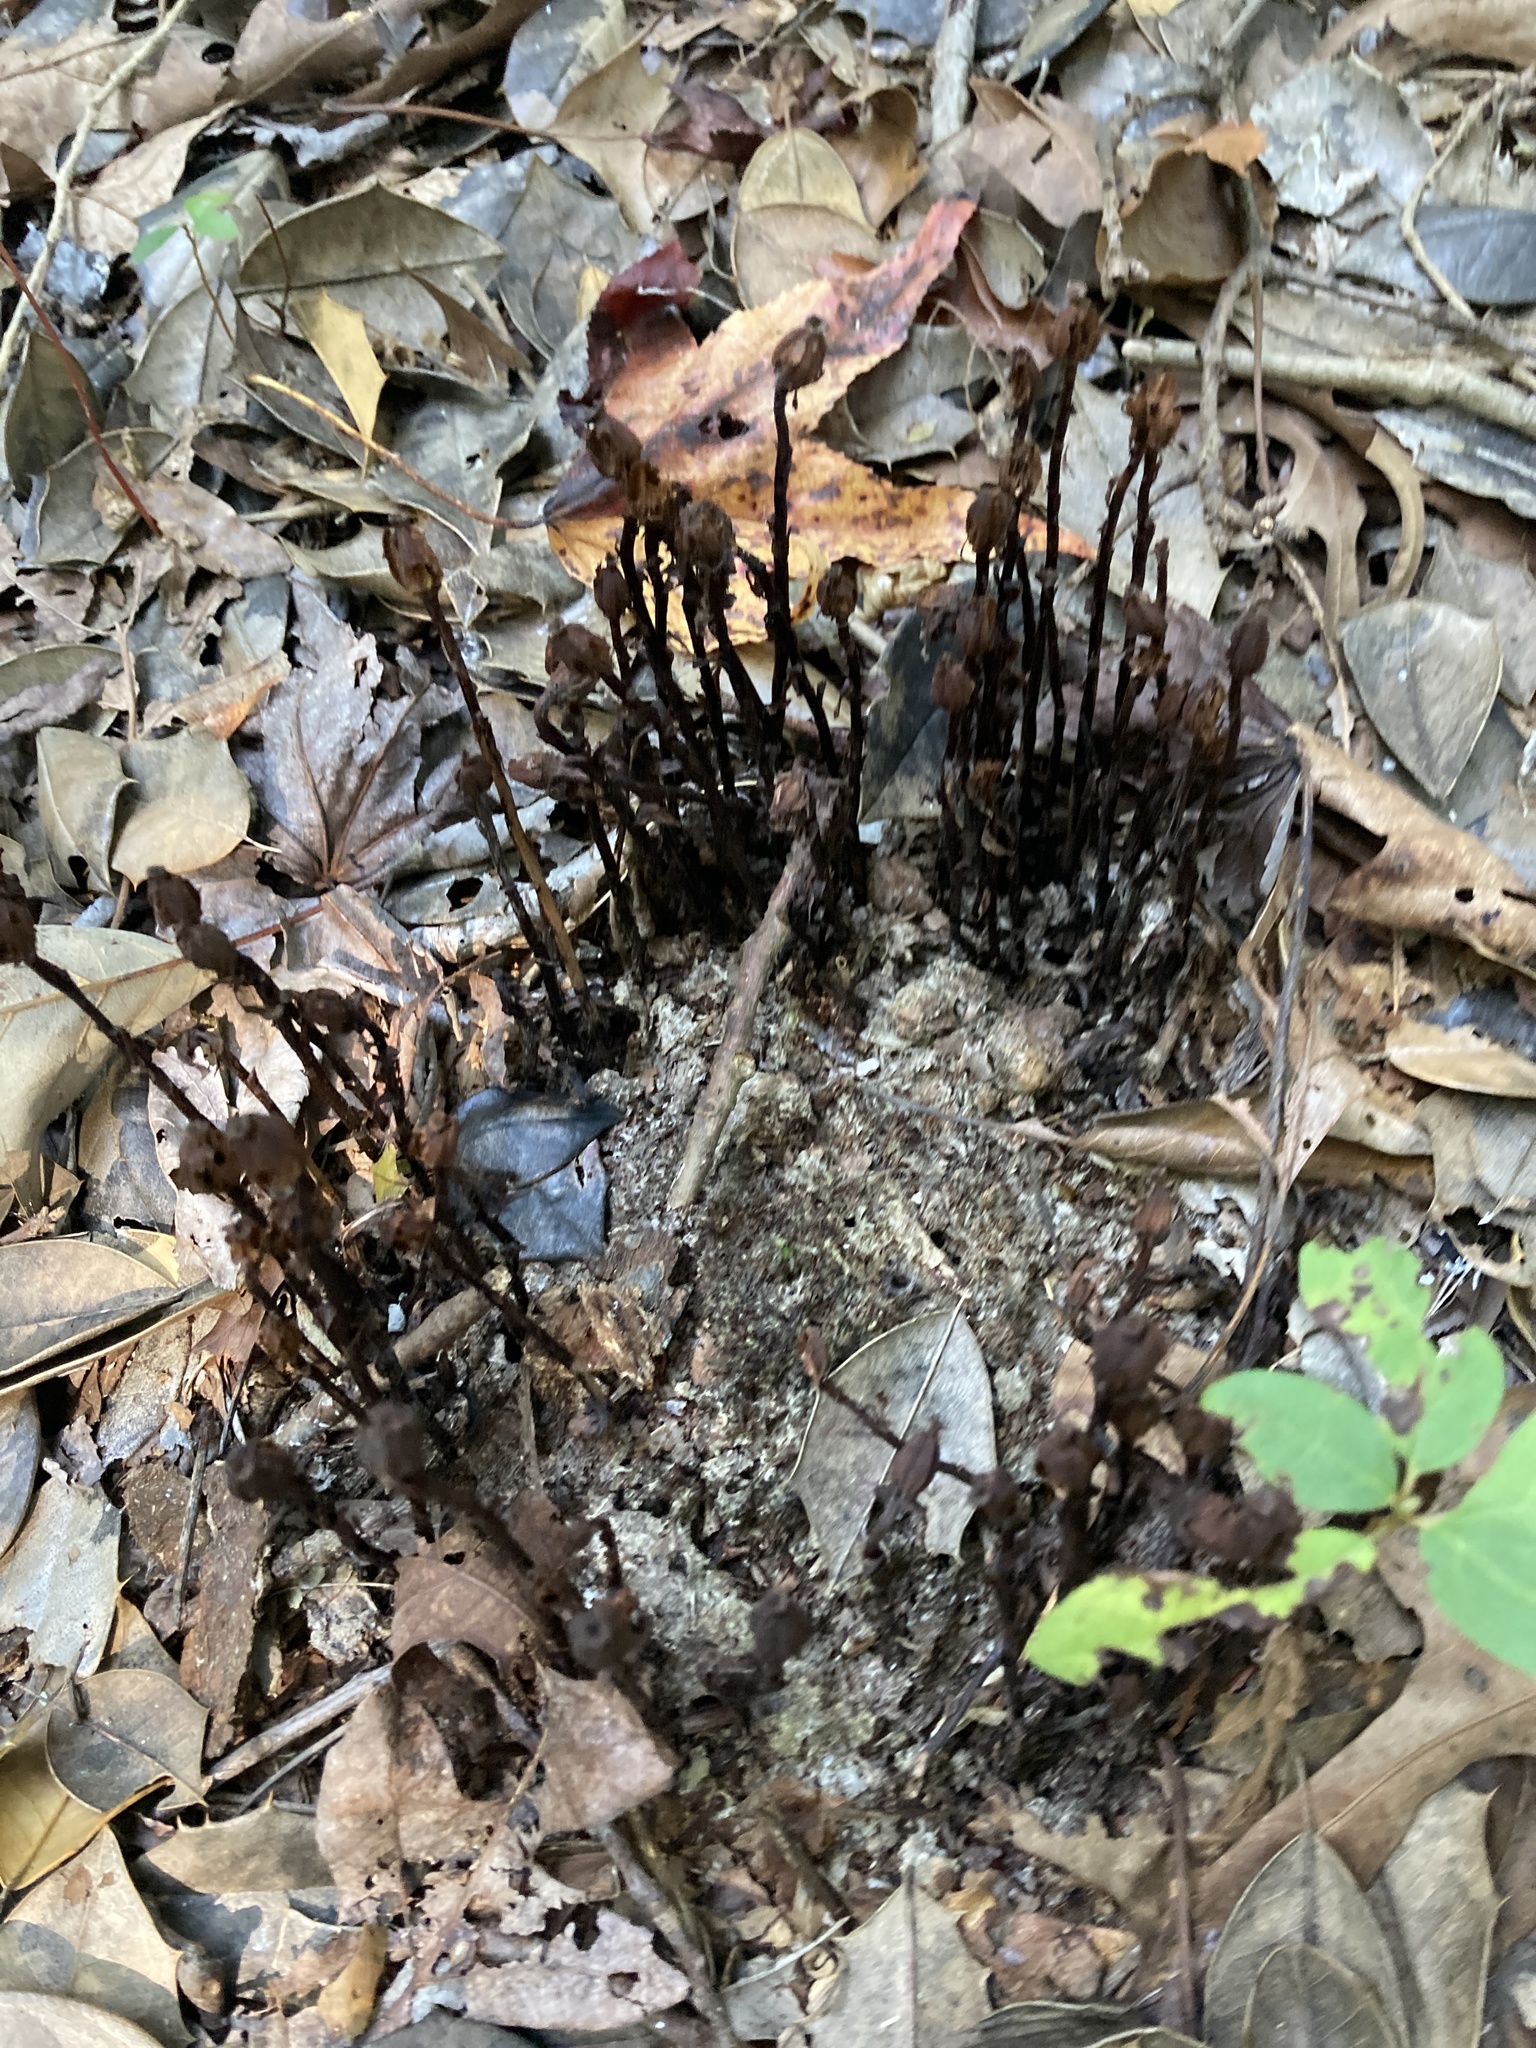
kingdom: Plantae
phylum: Tracheophyta
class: Magnoliopsida
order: Ericales
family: Ericaceae
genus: Monotropa
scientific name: Monotropa uniflora
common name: Convulsion root
